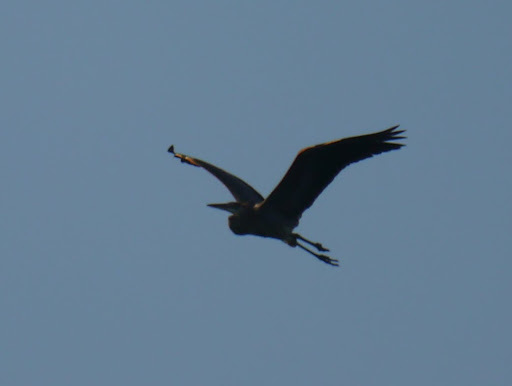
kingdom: Animalia
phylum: Chordata
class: Aves
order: Pelecaniformes
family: Ardeidae
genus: Ardea
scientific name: Ardea herodias
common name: Great blue heron
